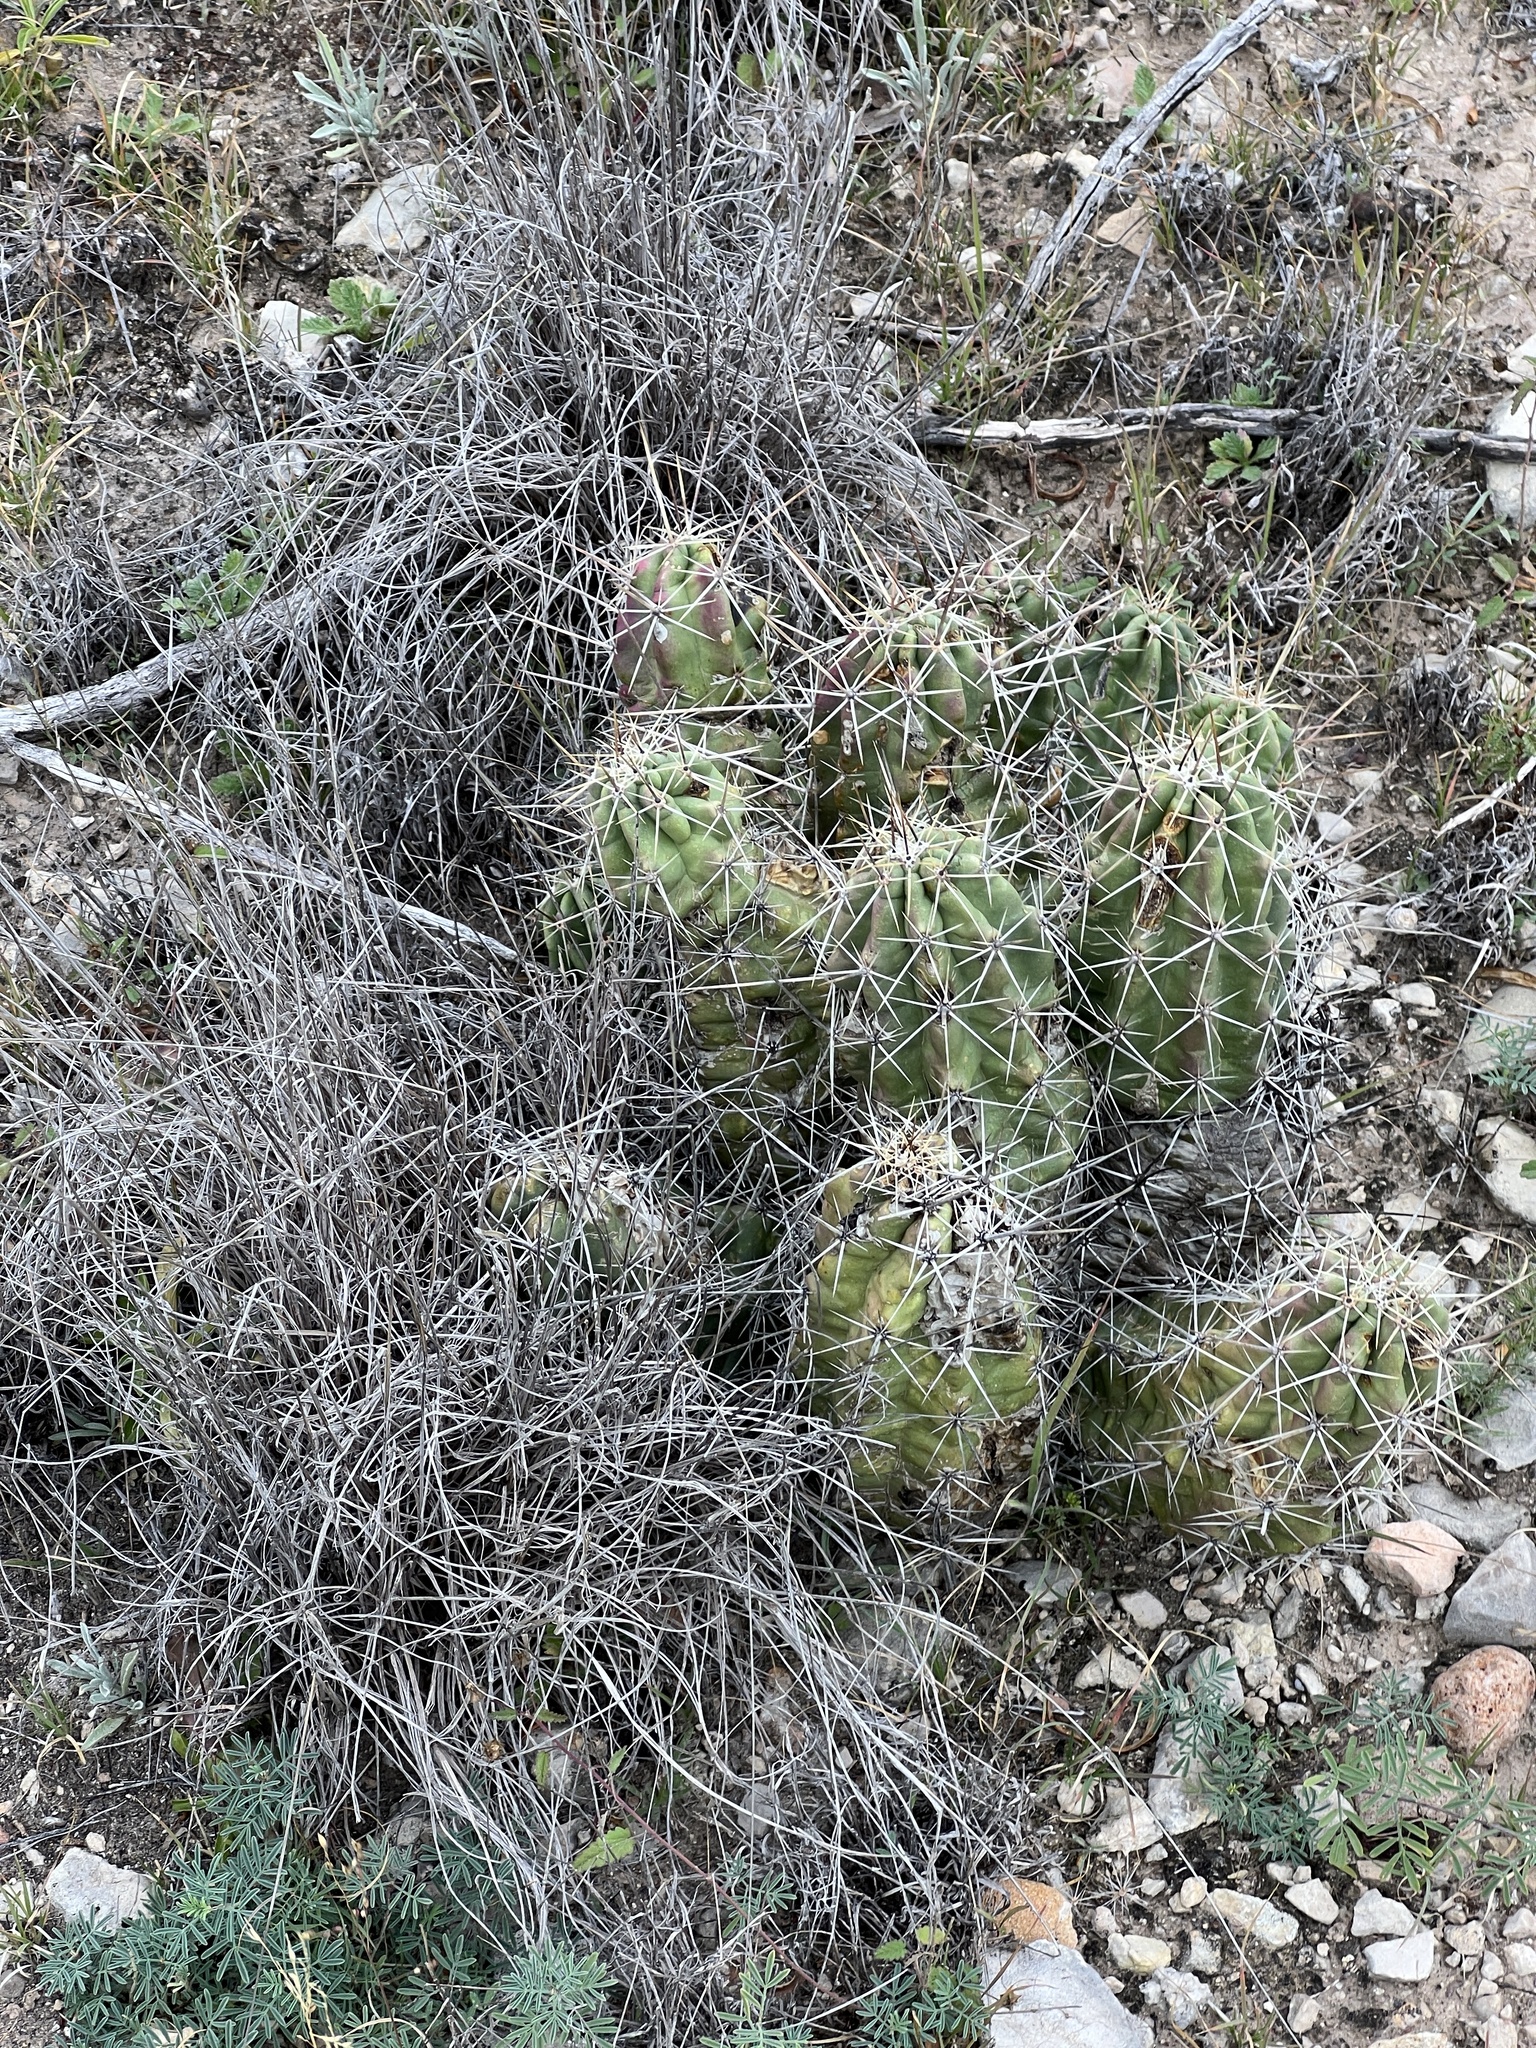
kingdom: Plantae
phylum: Tracheophyta
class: Magnoliopsida
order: Caryophyllales
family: Cactaceae
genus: Echinocereus
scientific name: Echinocereus enneacanthus
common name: Pitaya
